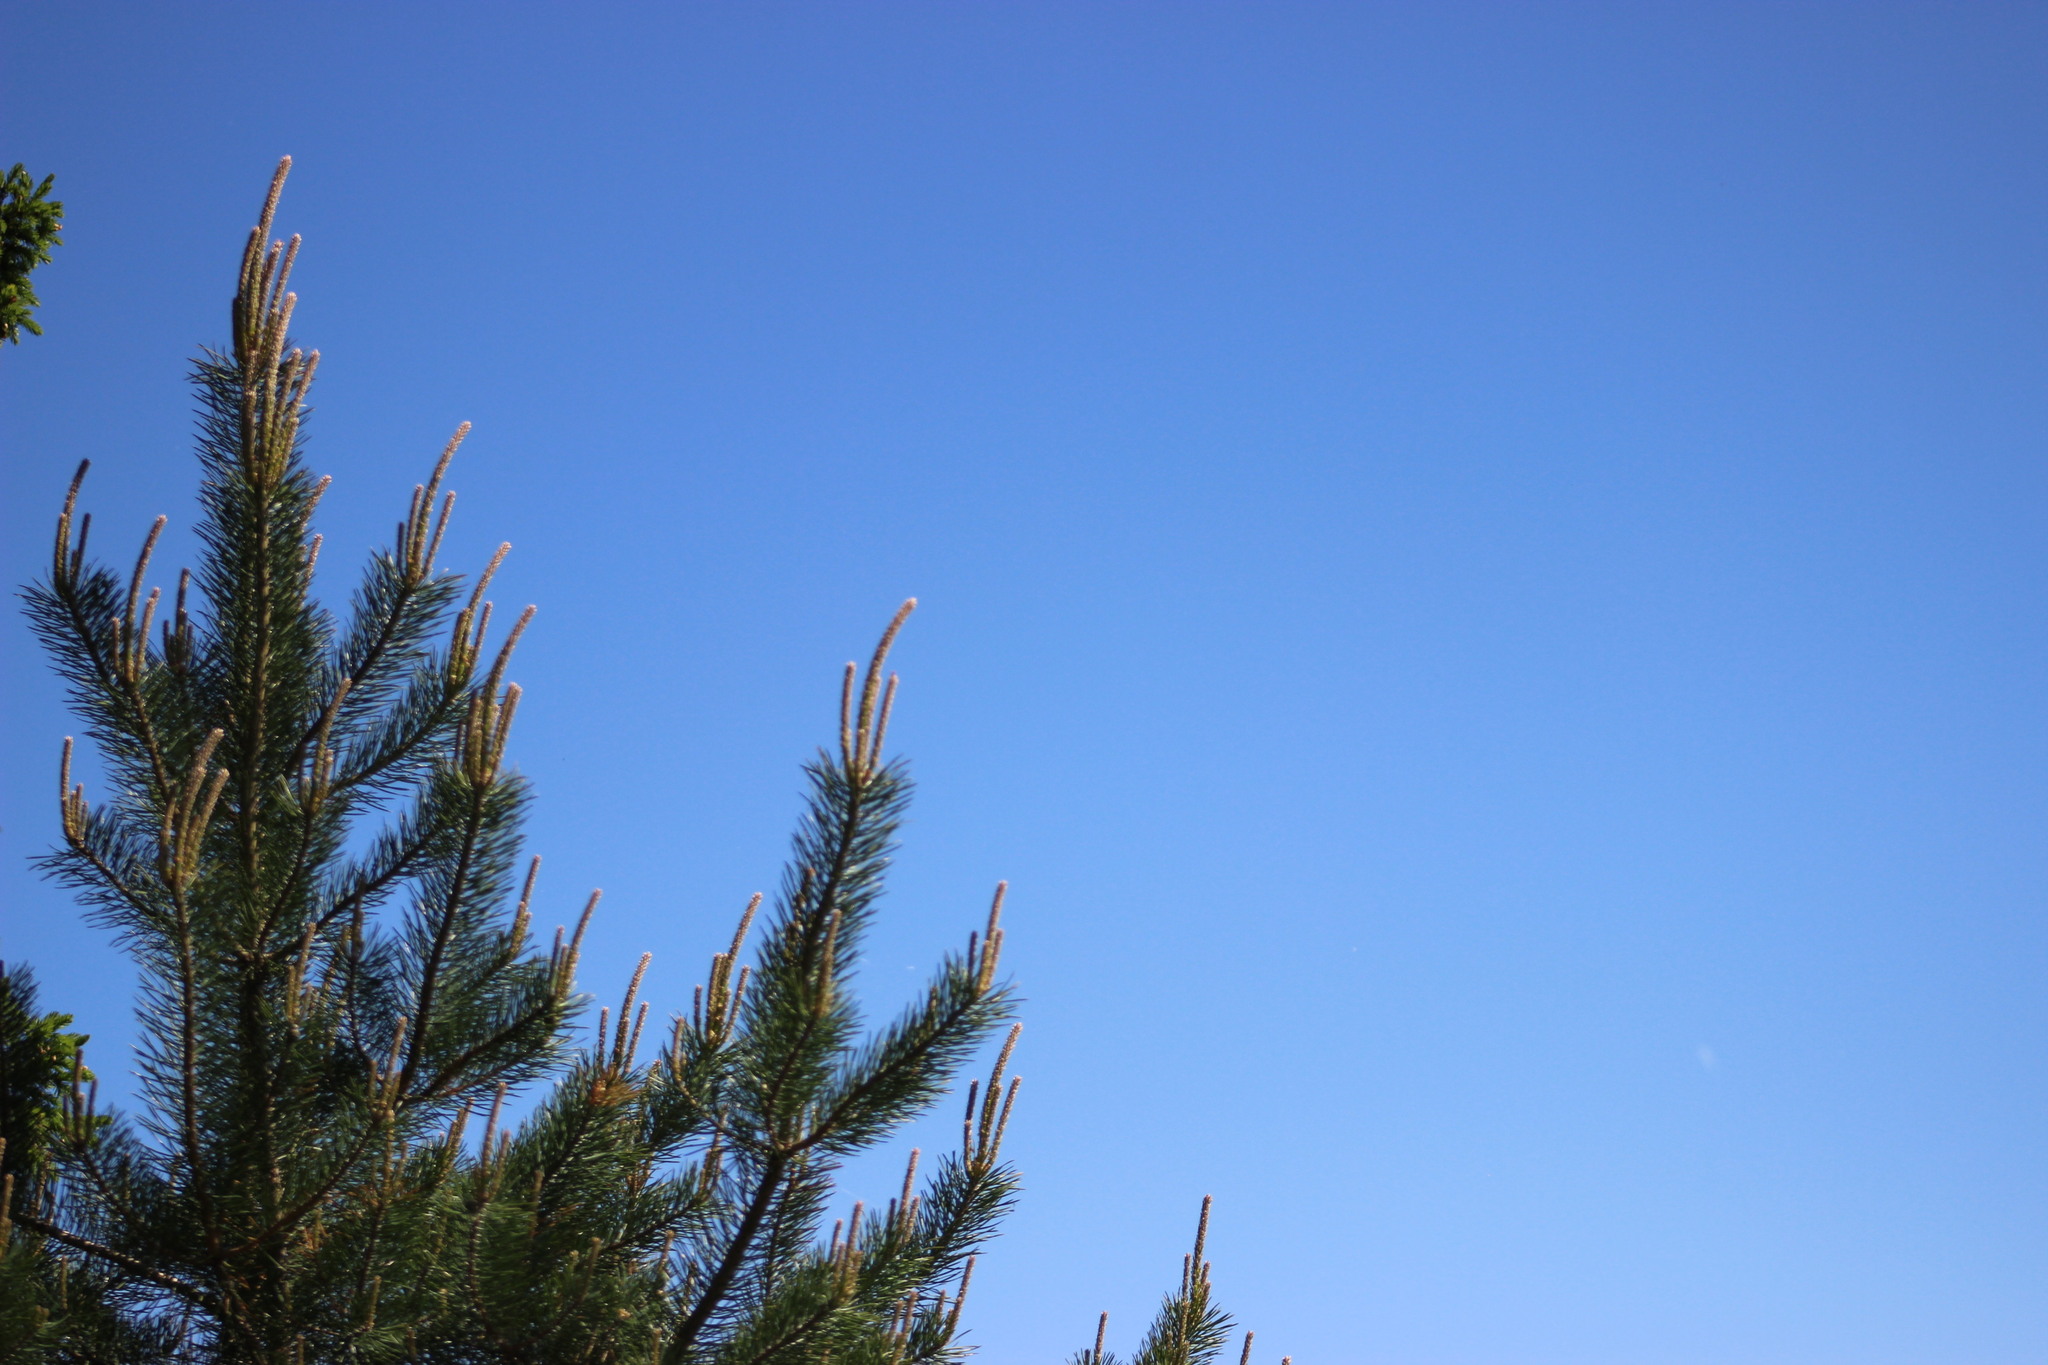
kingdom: Plantae
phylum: Tracheophyta
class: Pinopsida
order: Pinales
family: Pinaceae
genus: Pinus
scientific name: Pinus sylvestris
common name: Scots pine
